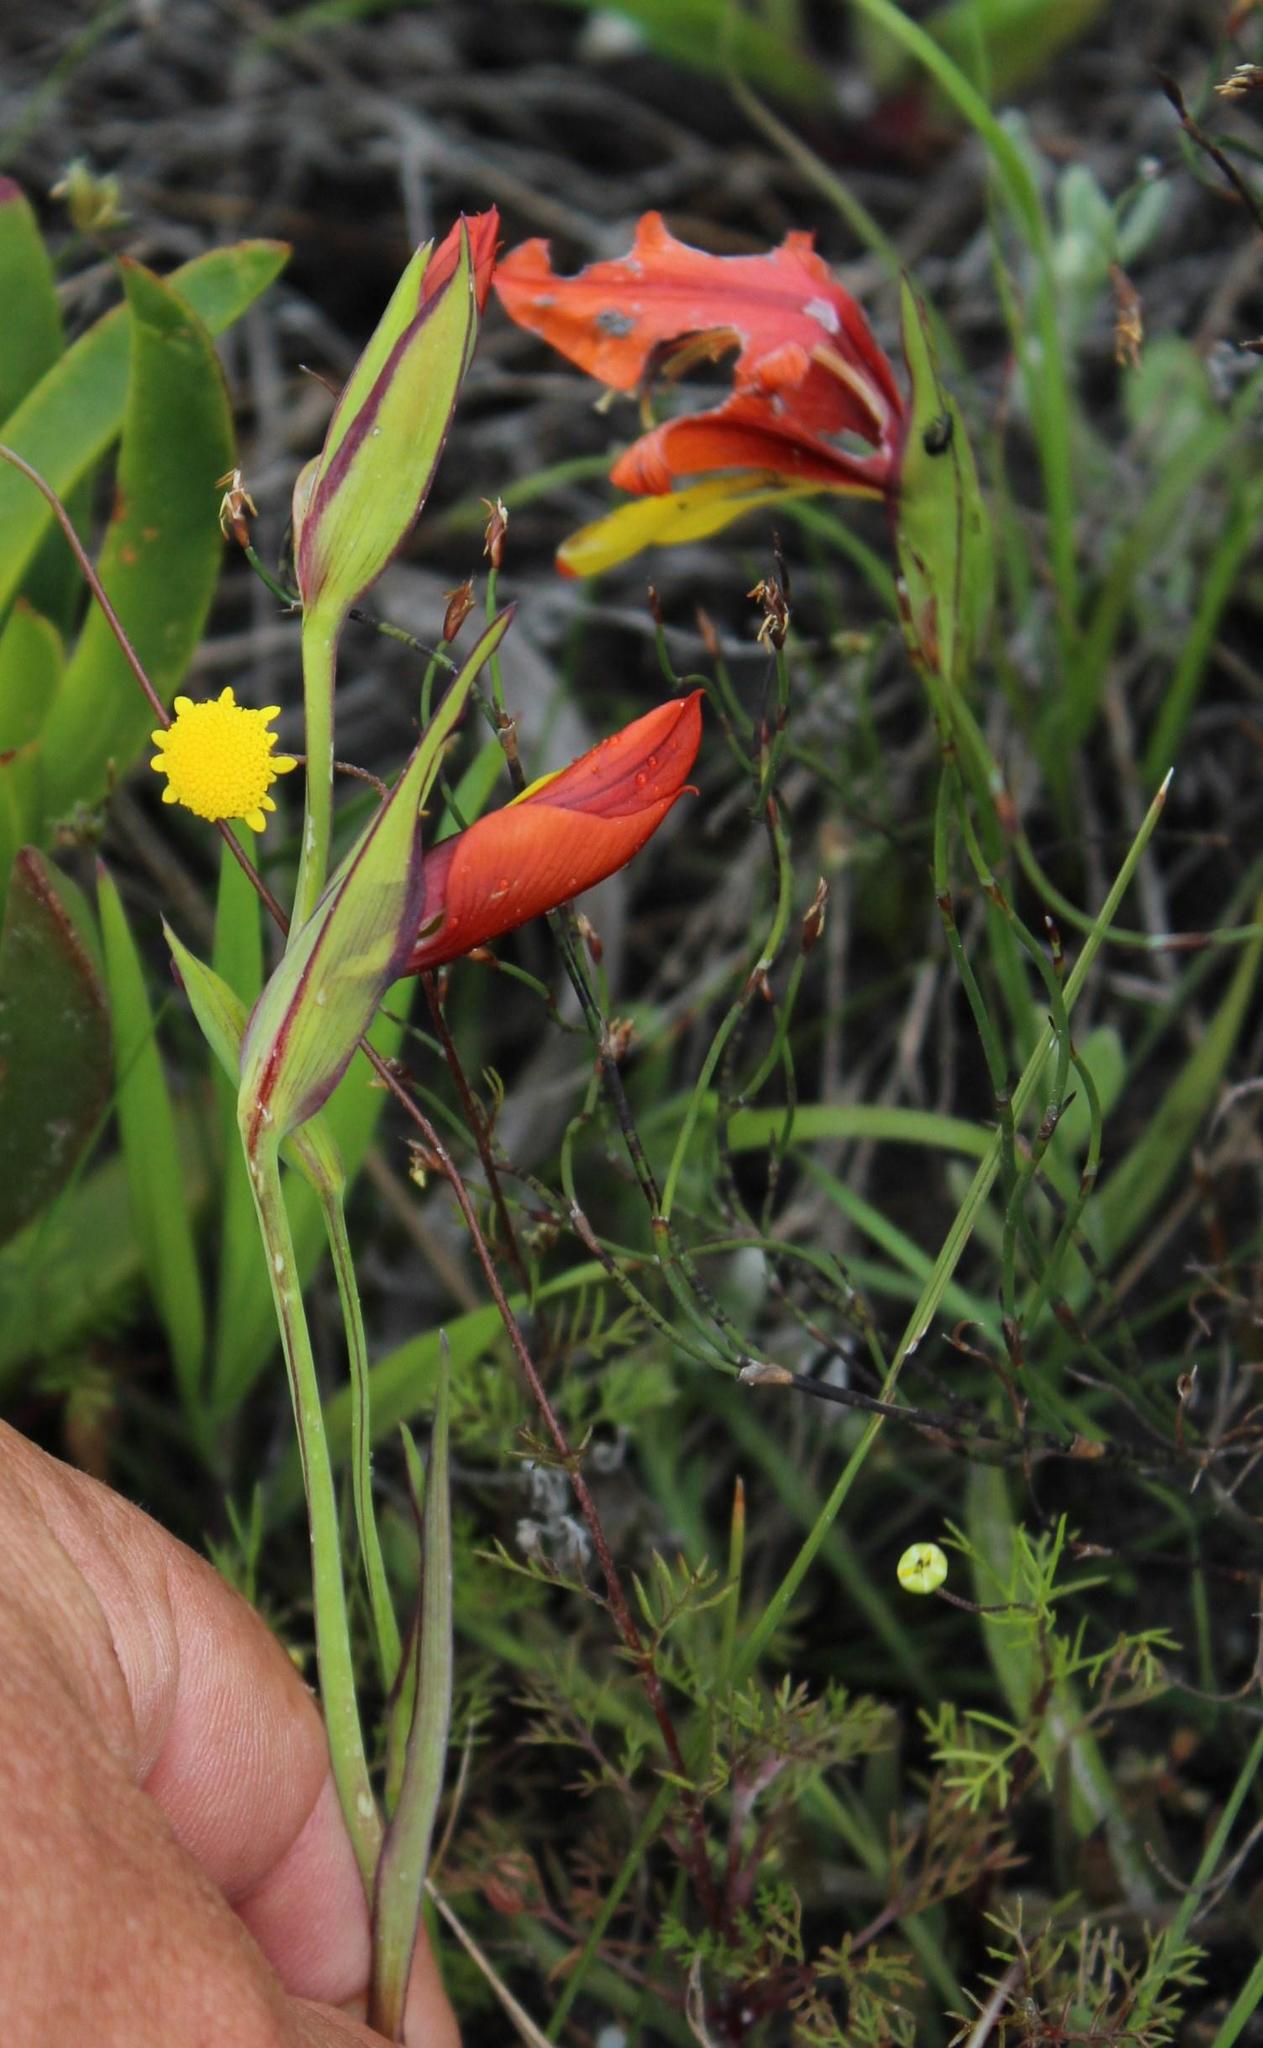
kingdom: Plantae
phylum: Tracheophyta
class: Liliopsida
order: Asparagales
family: Iridaceae
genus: Gladiolus
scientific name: Gladiolus alatus
